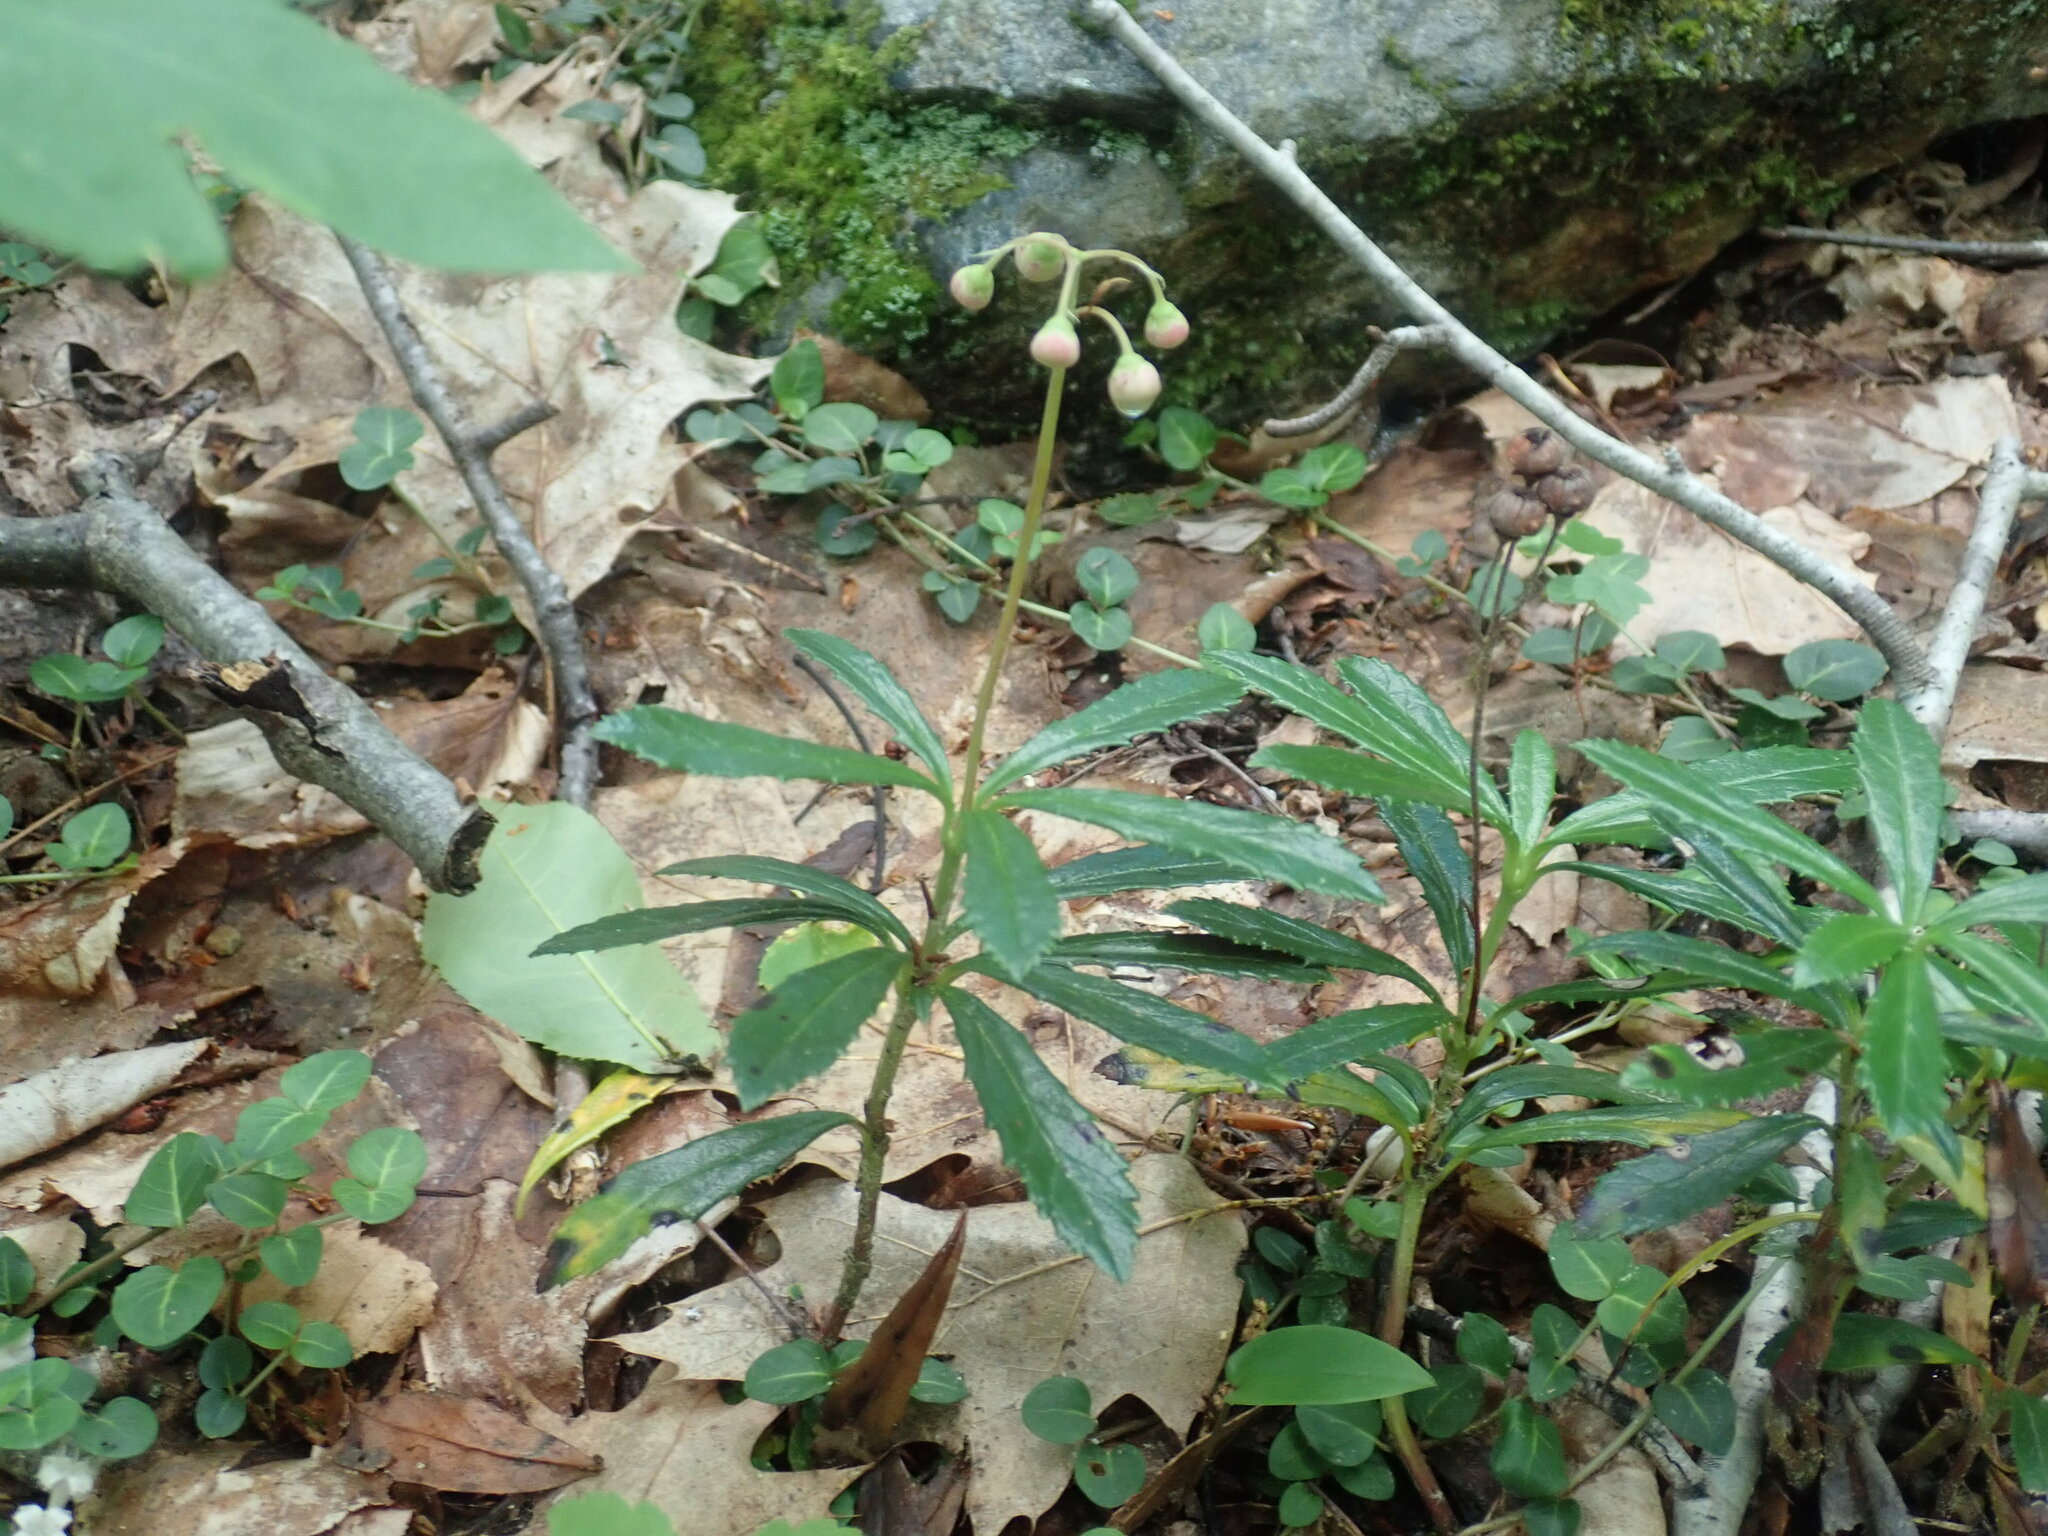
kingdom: Plantae
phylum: Tracheophyta
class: Magnoliopsida
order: Ericales
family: Ericaceae
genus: Chimaphila
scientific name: Chimaphila umbellata
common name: Pipsissewa
